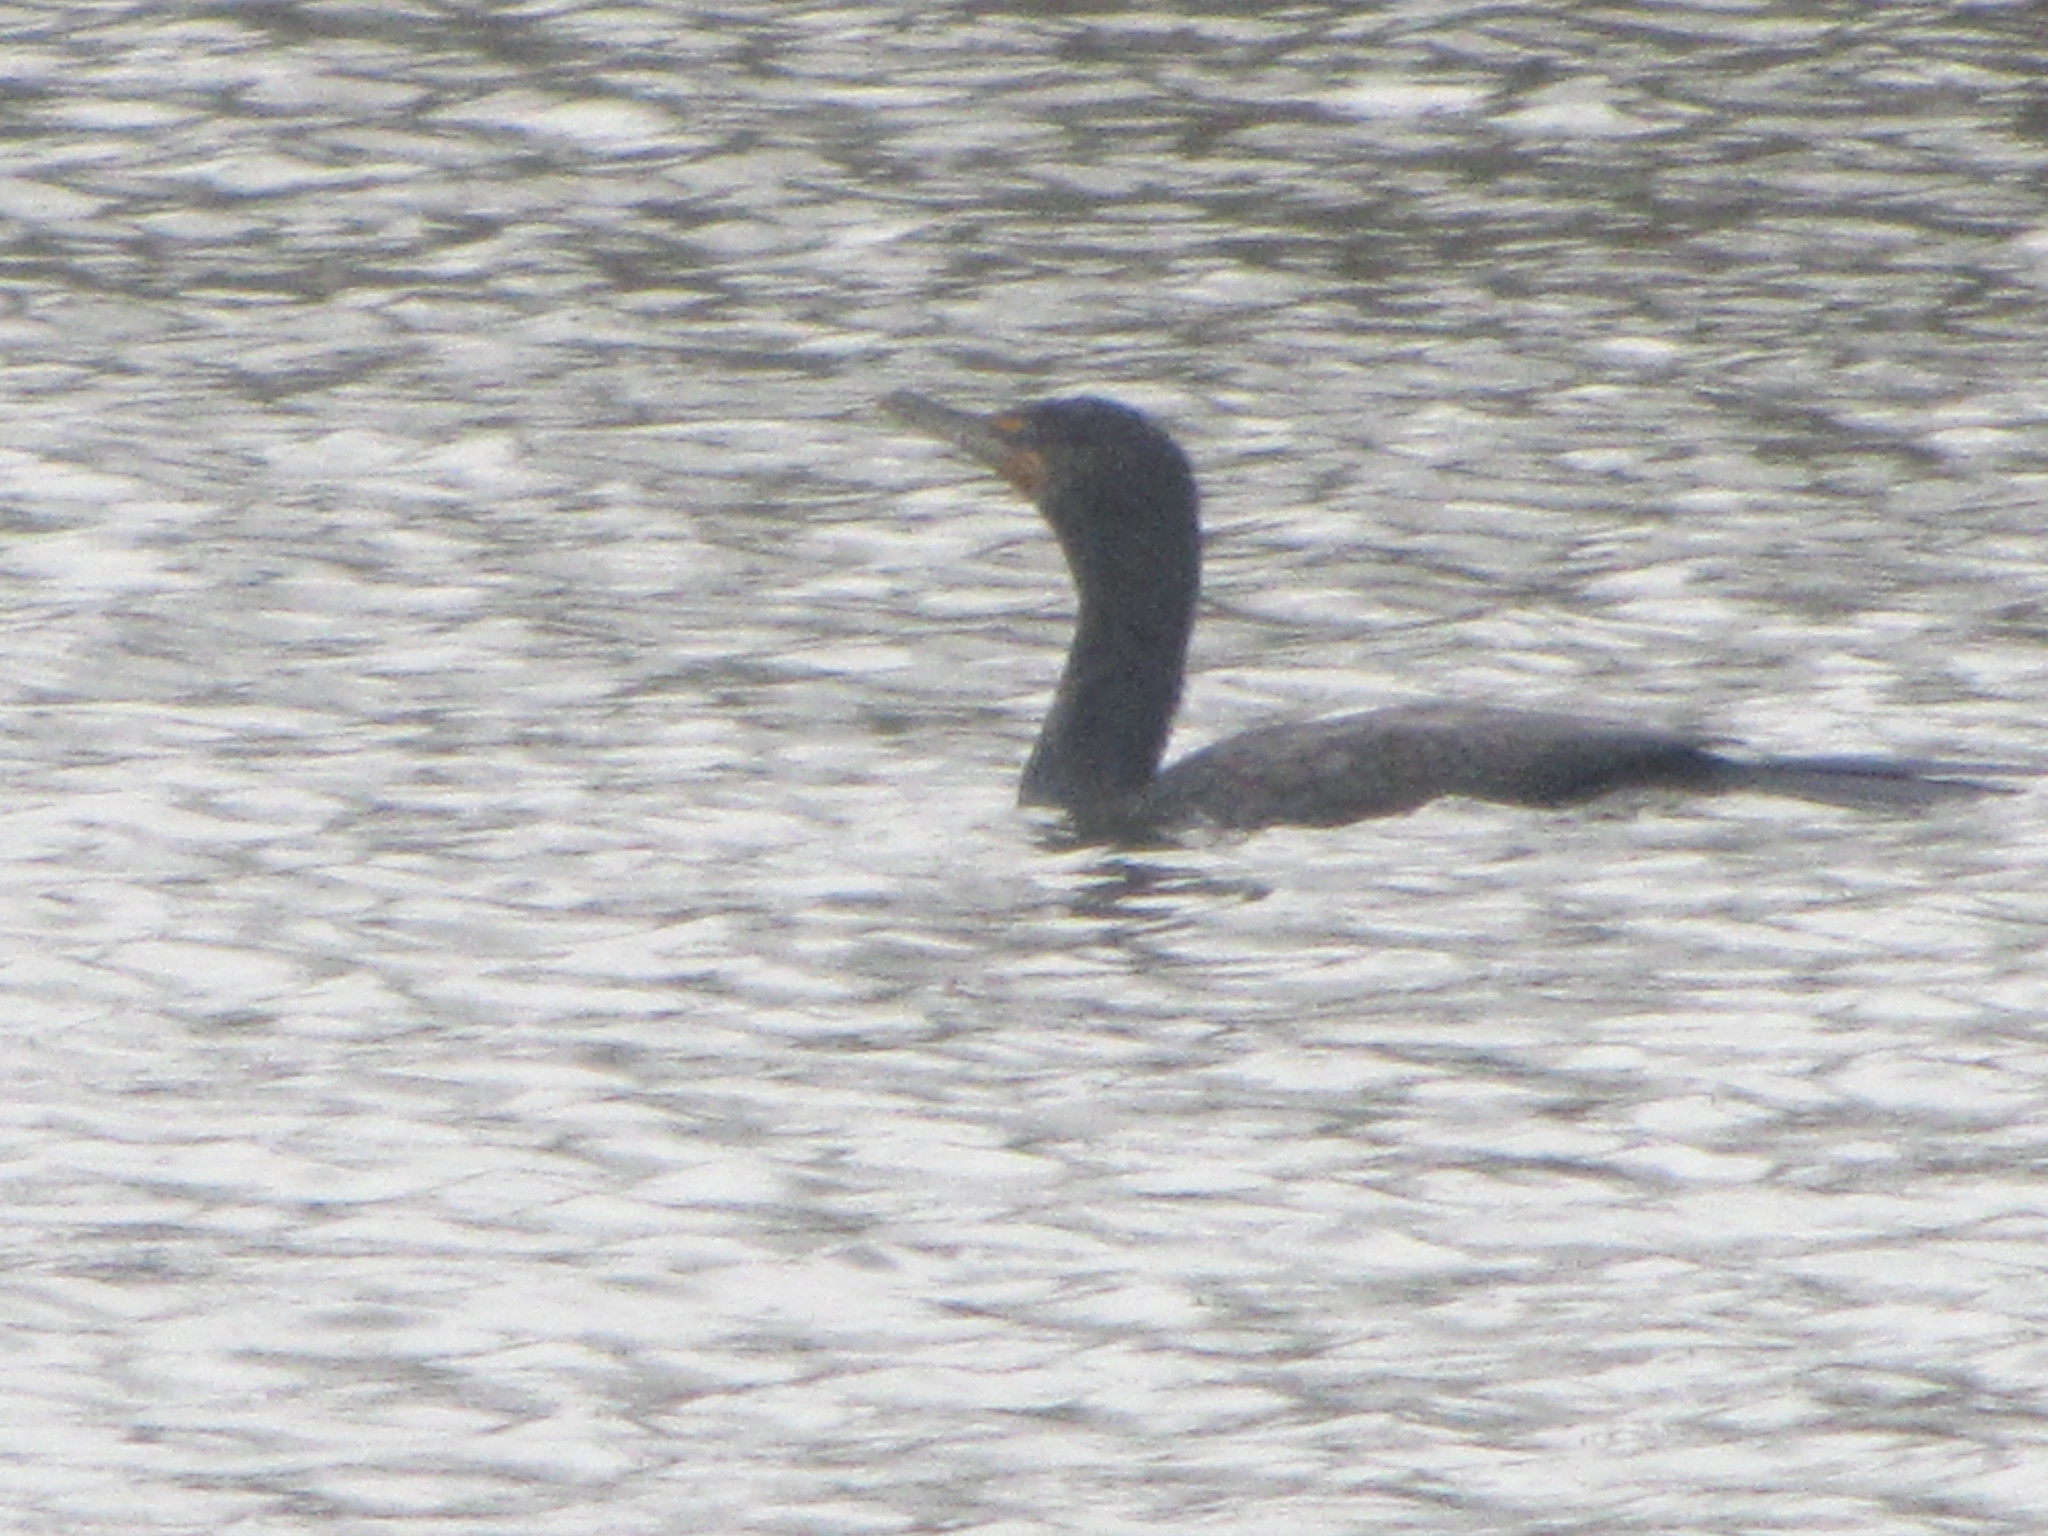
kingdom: Animalia
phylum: Chordata
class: Aves
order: Suliformes
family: Phalacrocoracidae
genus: Phalacrocorax
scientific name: Phalacrocorax auritus
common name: Double-crested cormorant
